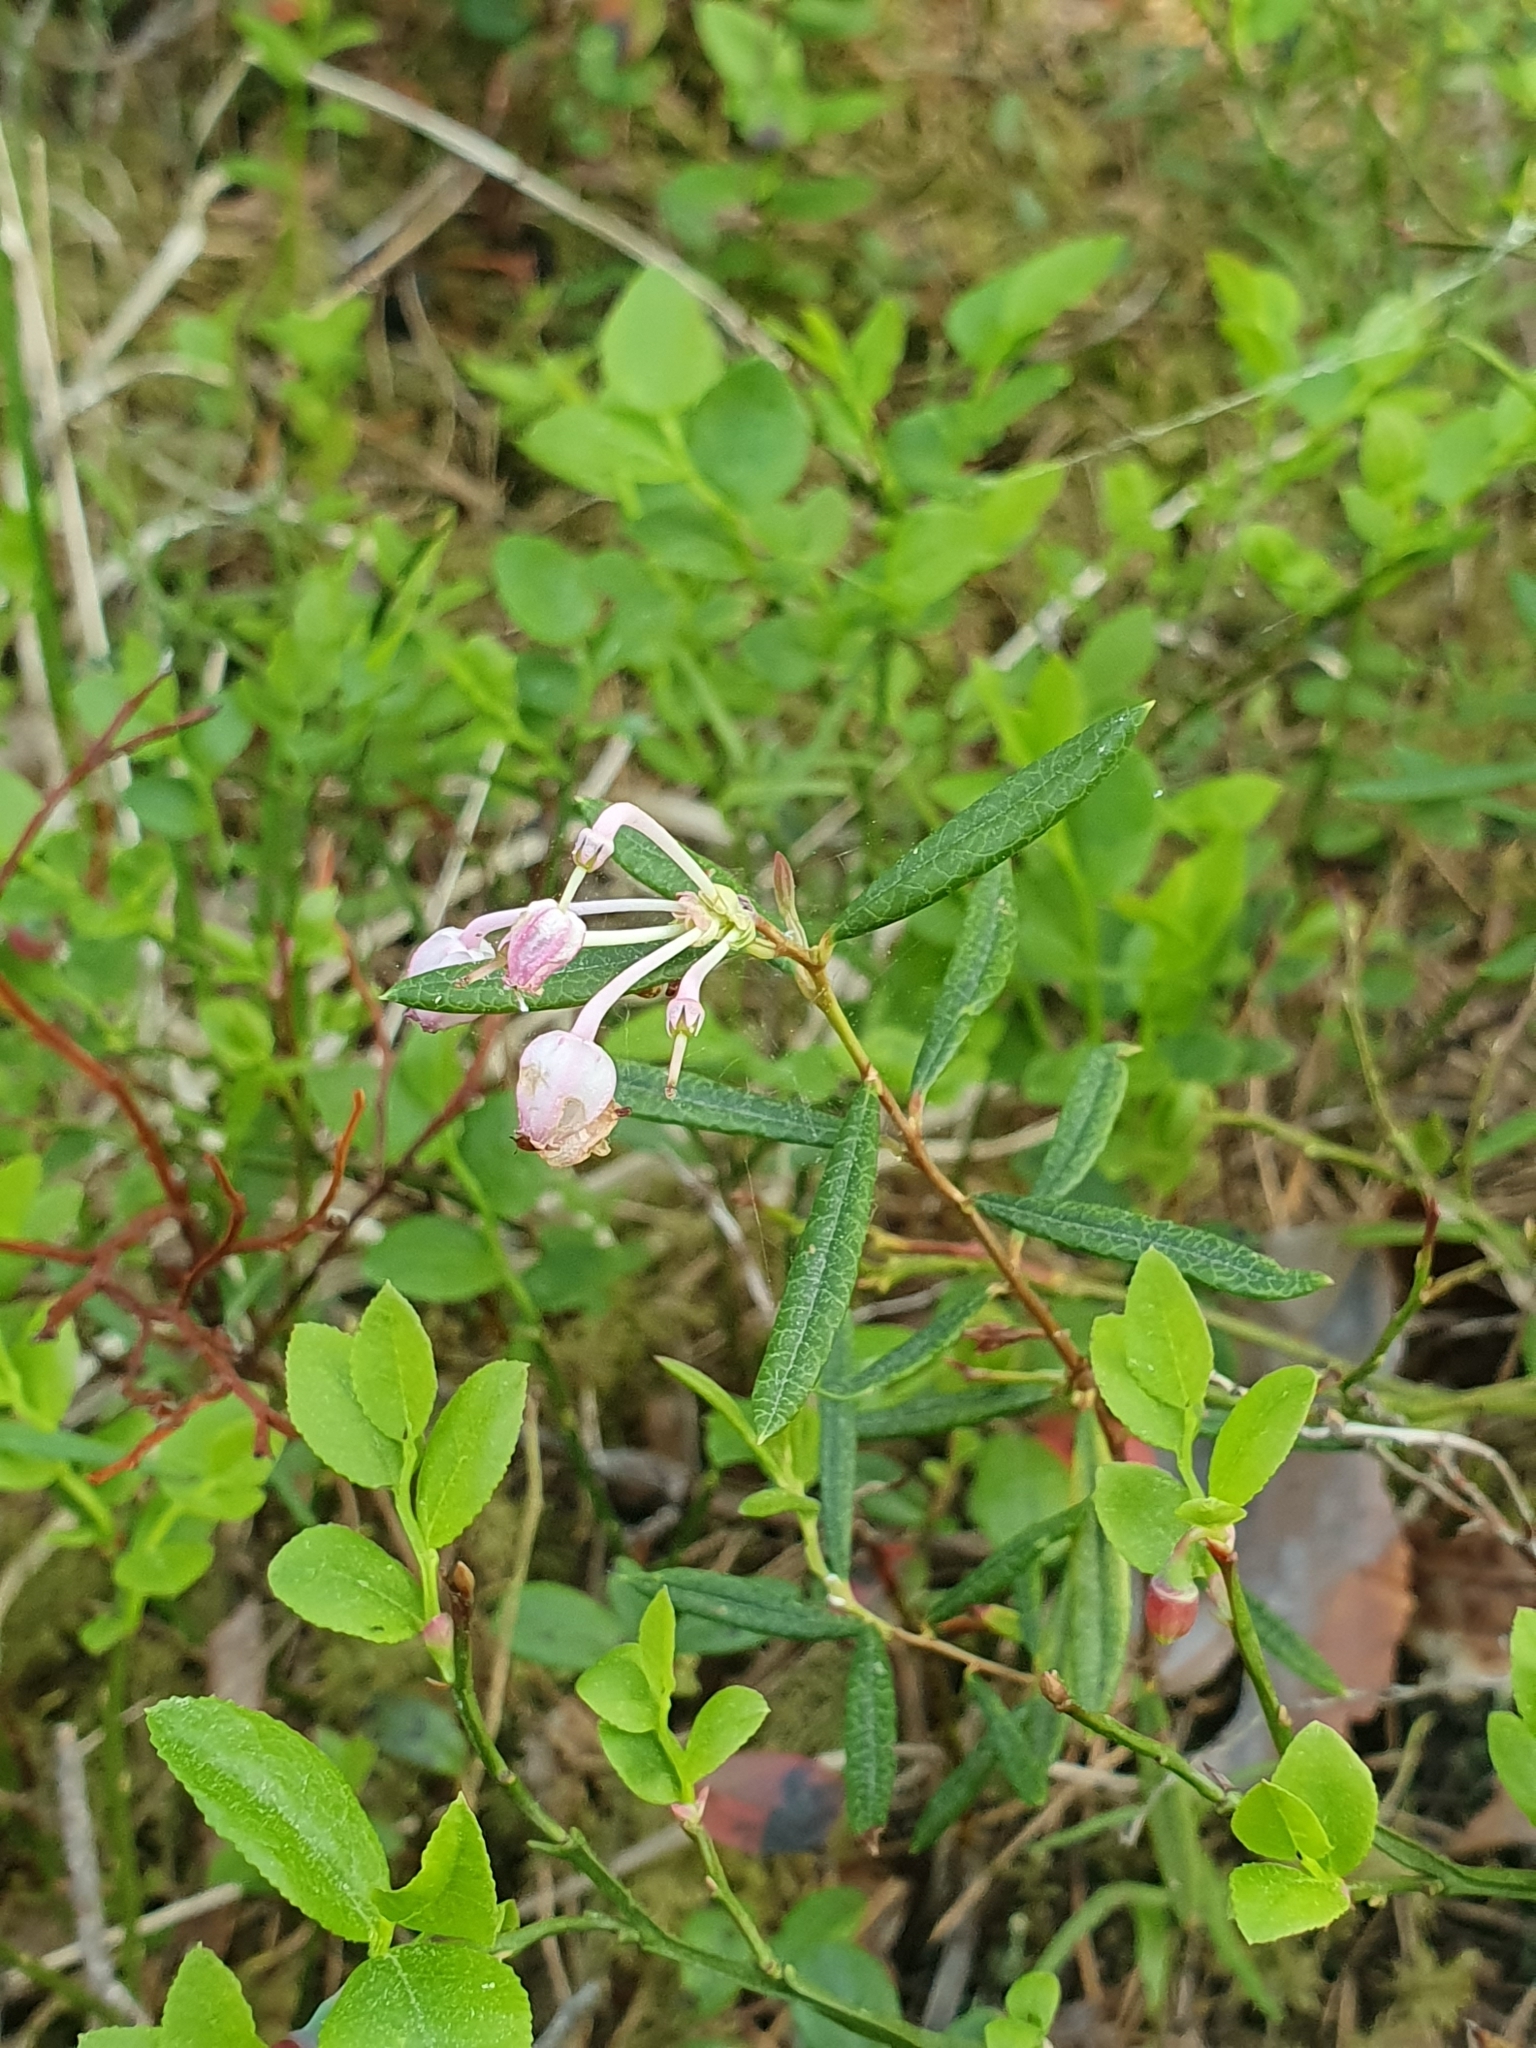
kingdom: Plantae
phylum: Tracheophyta
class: Magnoliopsida
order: Ericales
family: Ericaceae
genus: Andromeda
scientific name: Andromeda polifolia
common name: Bog-rosemary
